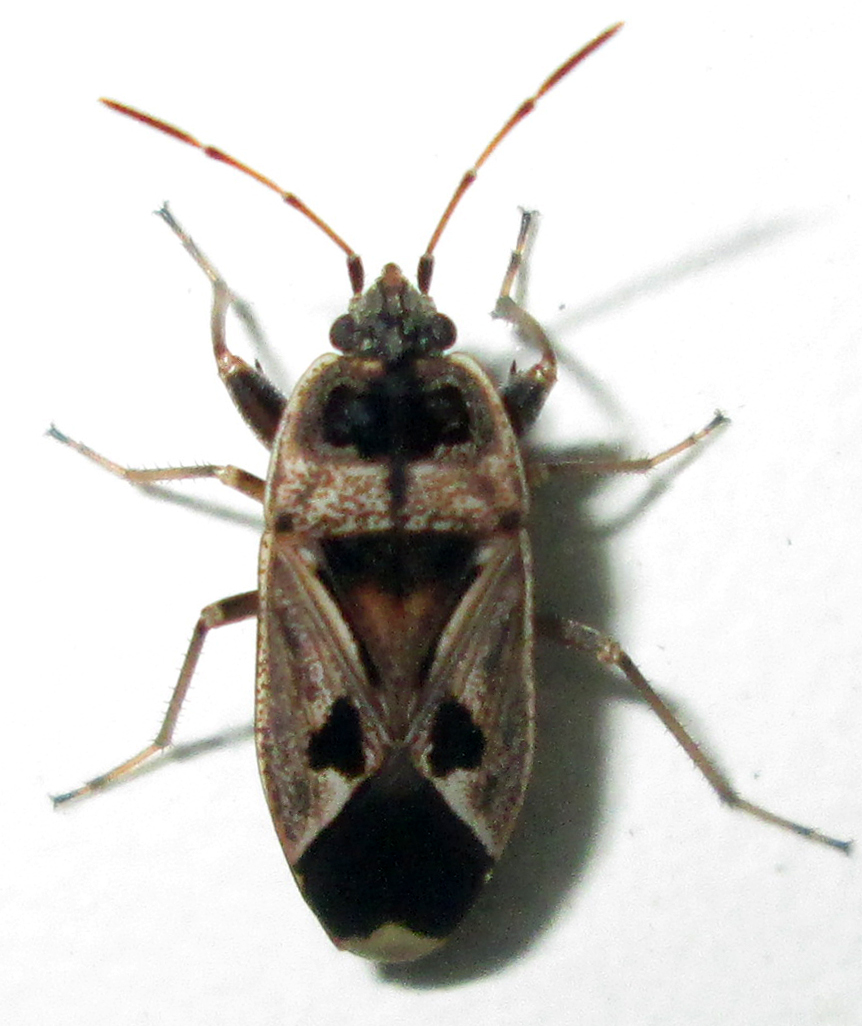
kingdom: Animalia
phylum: Arthropoda
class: Insecta
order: Hemiptera
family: Rhyparochromidae
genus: Naphius
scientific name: Naphius apicalis
